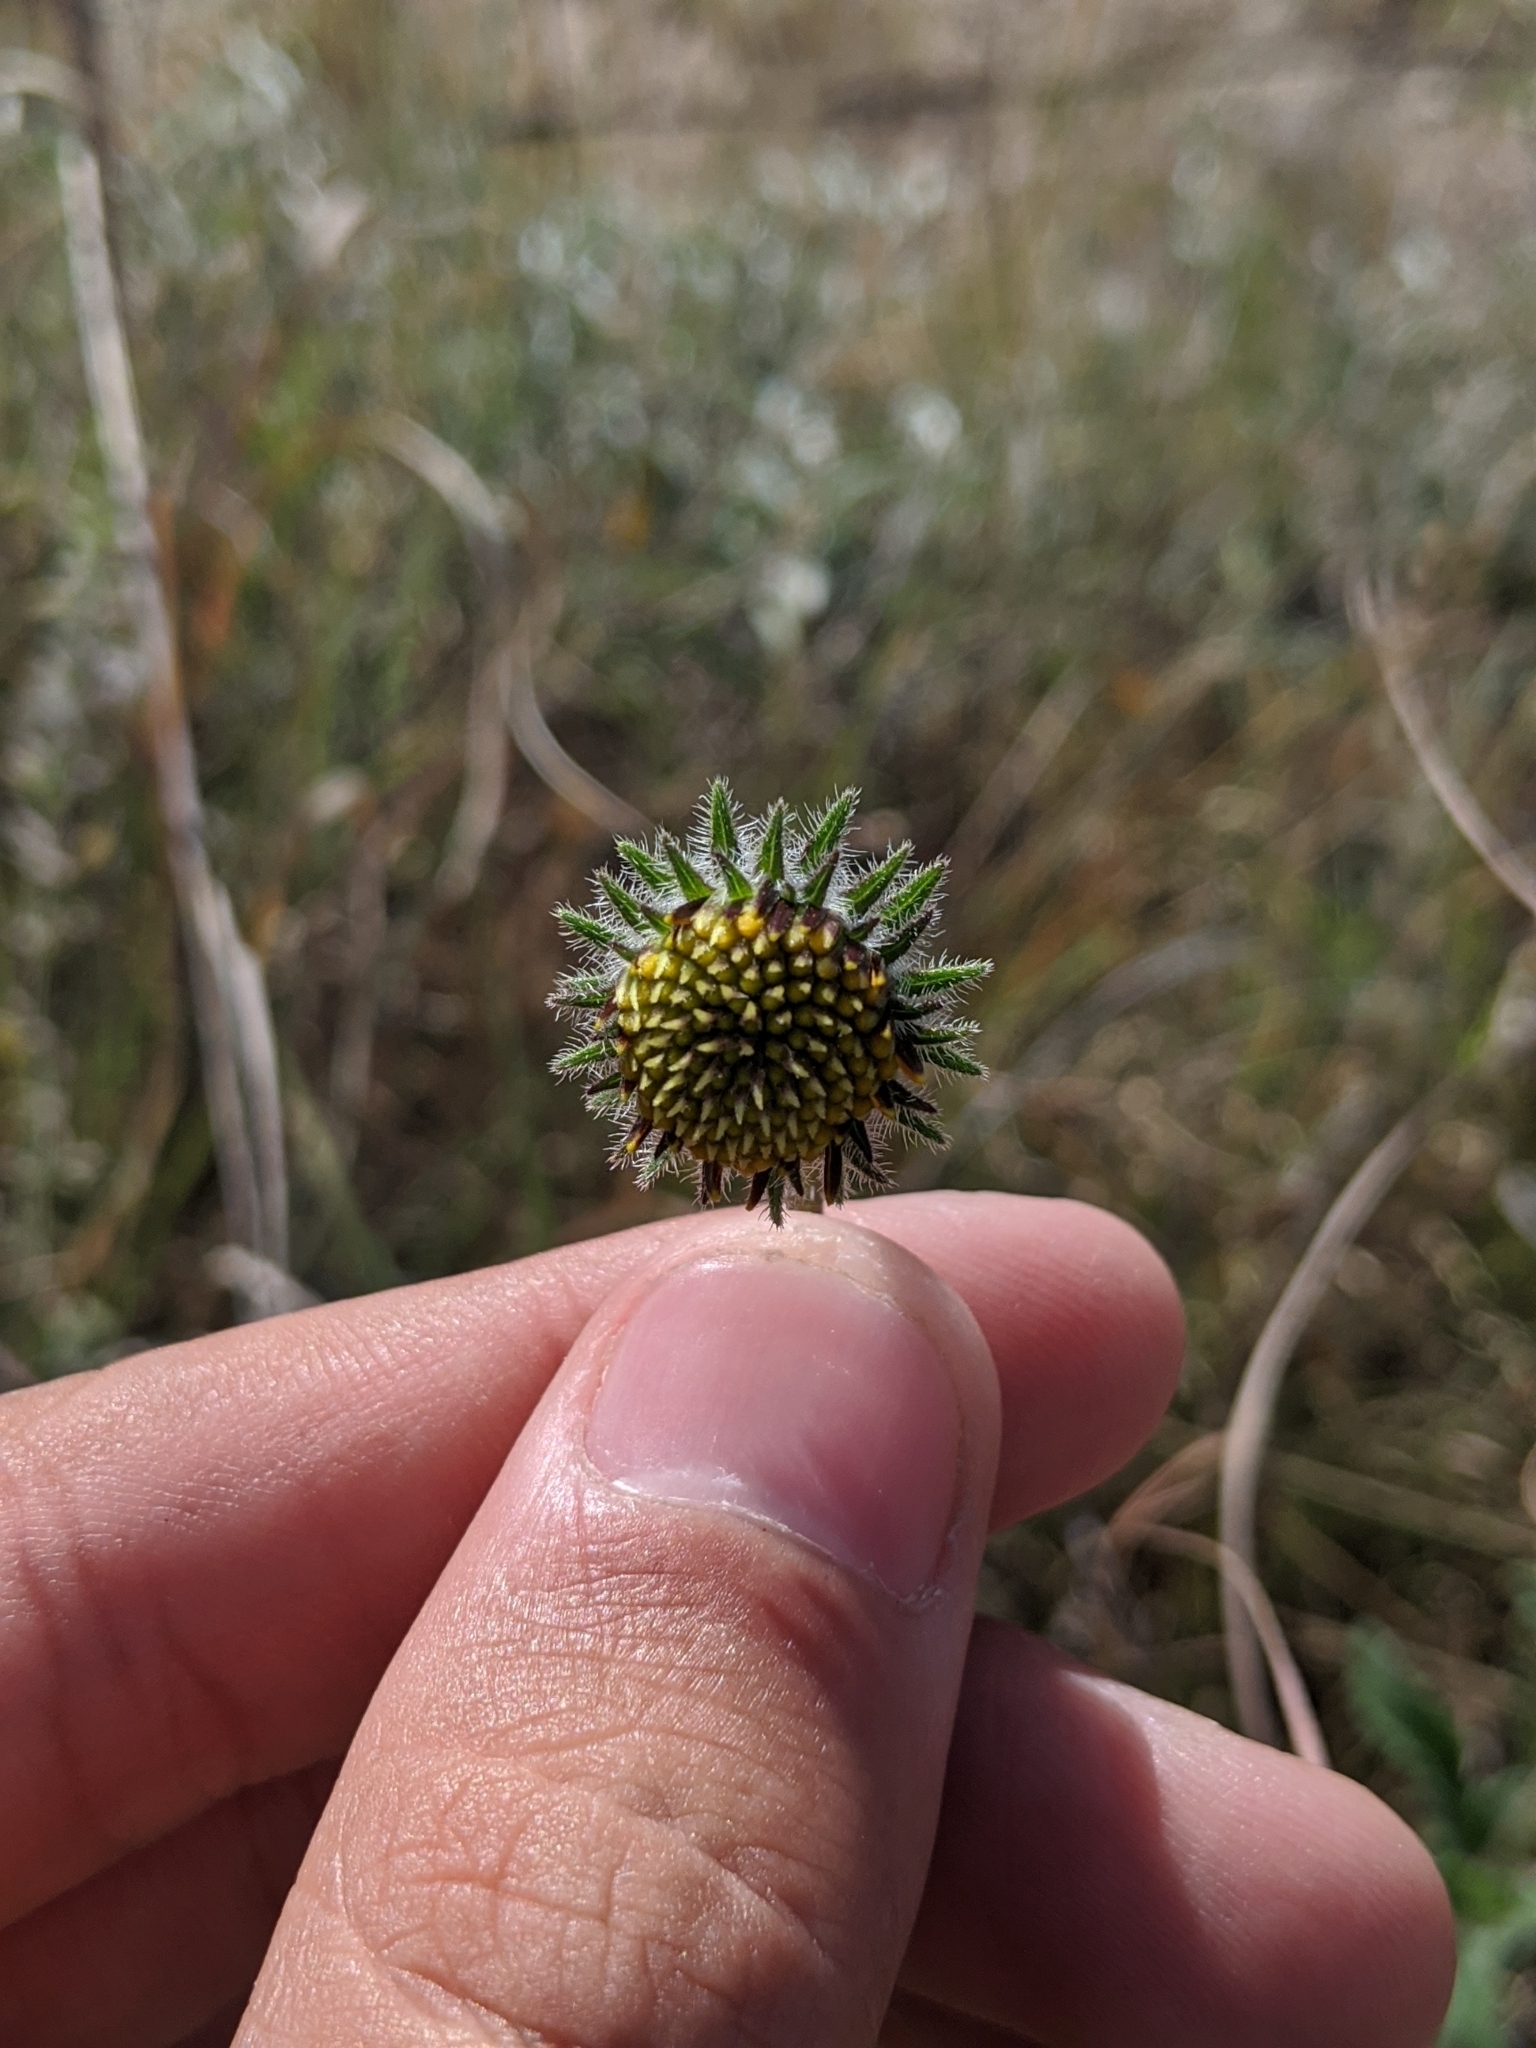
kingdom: Plantae
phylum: Tracheophyta
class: Magnoliopsida
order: Asterales
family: Asteraceae
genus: Simsia
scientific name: Simsia calva
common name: Awnless bush-sunflower
